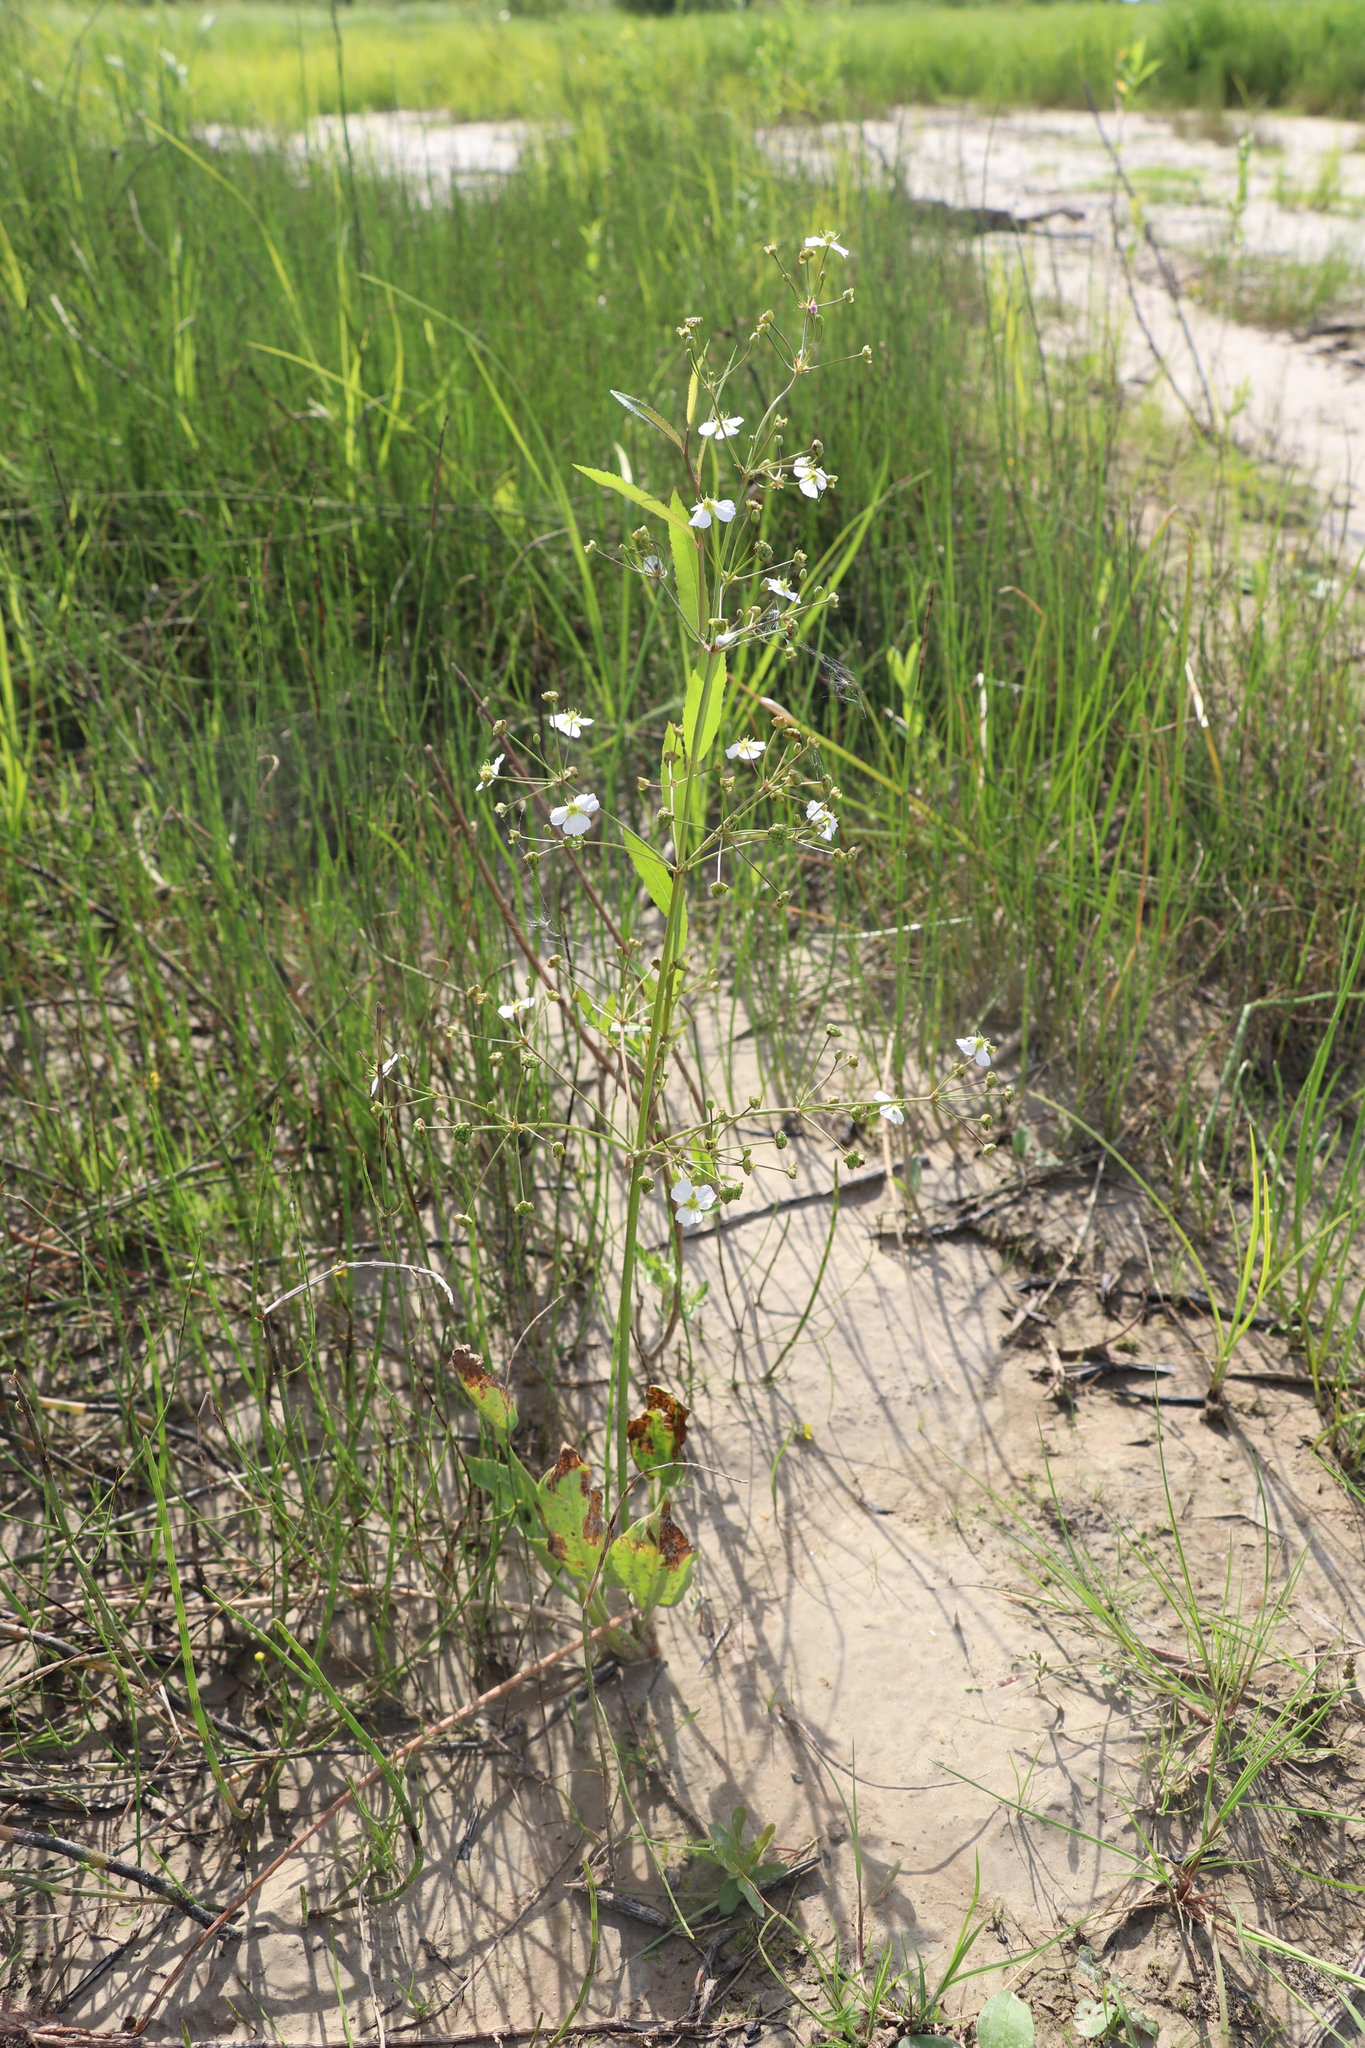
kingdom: Plantae
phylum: Tracheophyta
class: Liliopsida
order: Alismatales
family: Alismataceae
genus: Alisma
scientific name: Alisma plantago-aquatica
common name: Water-plantain
